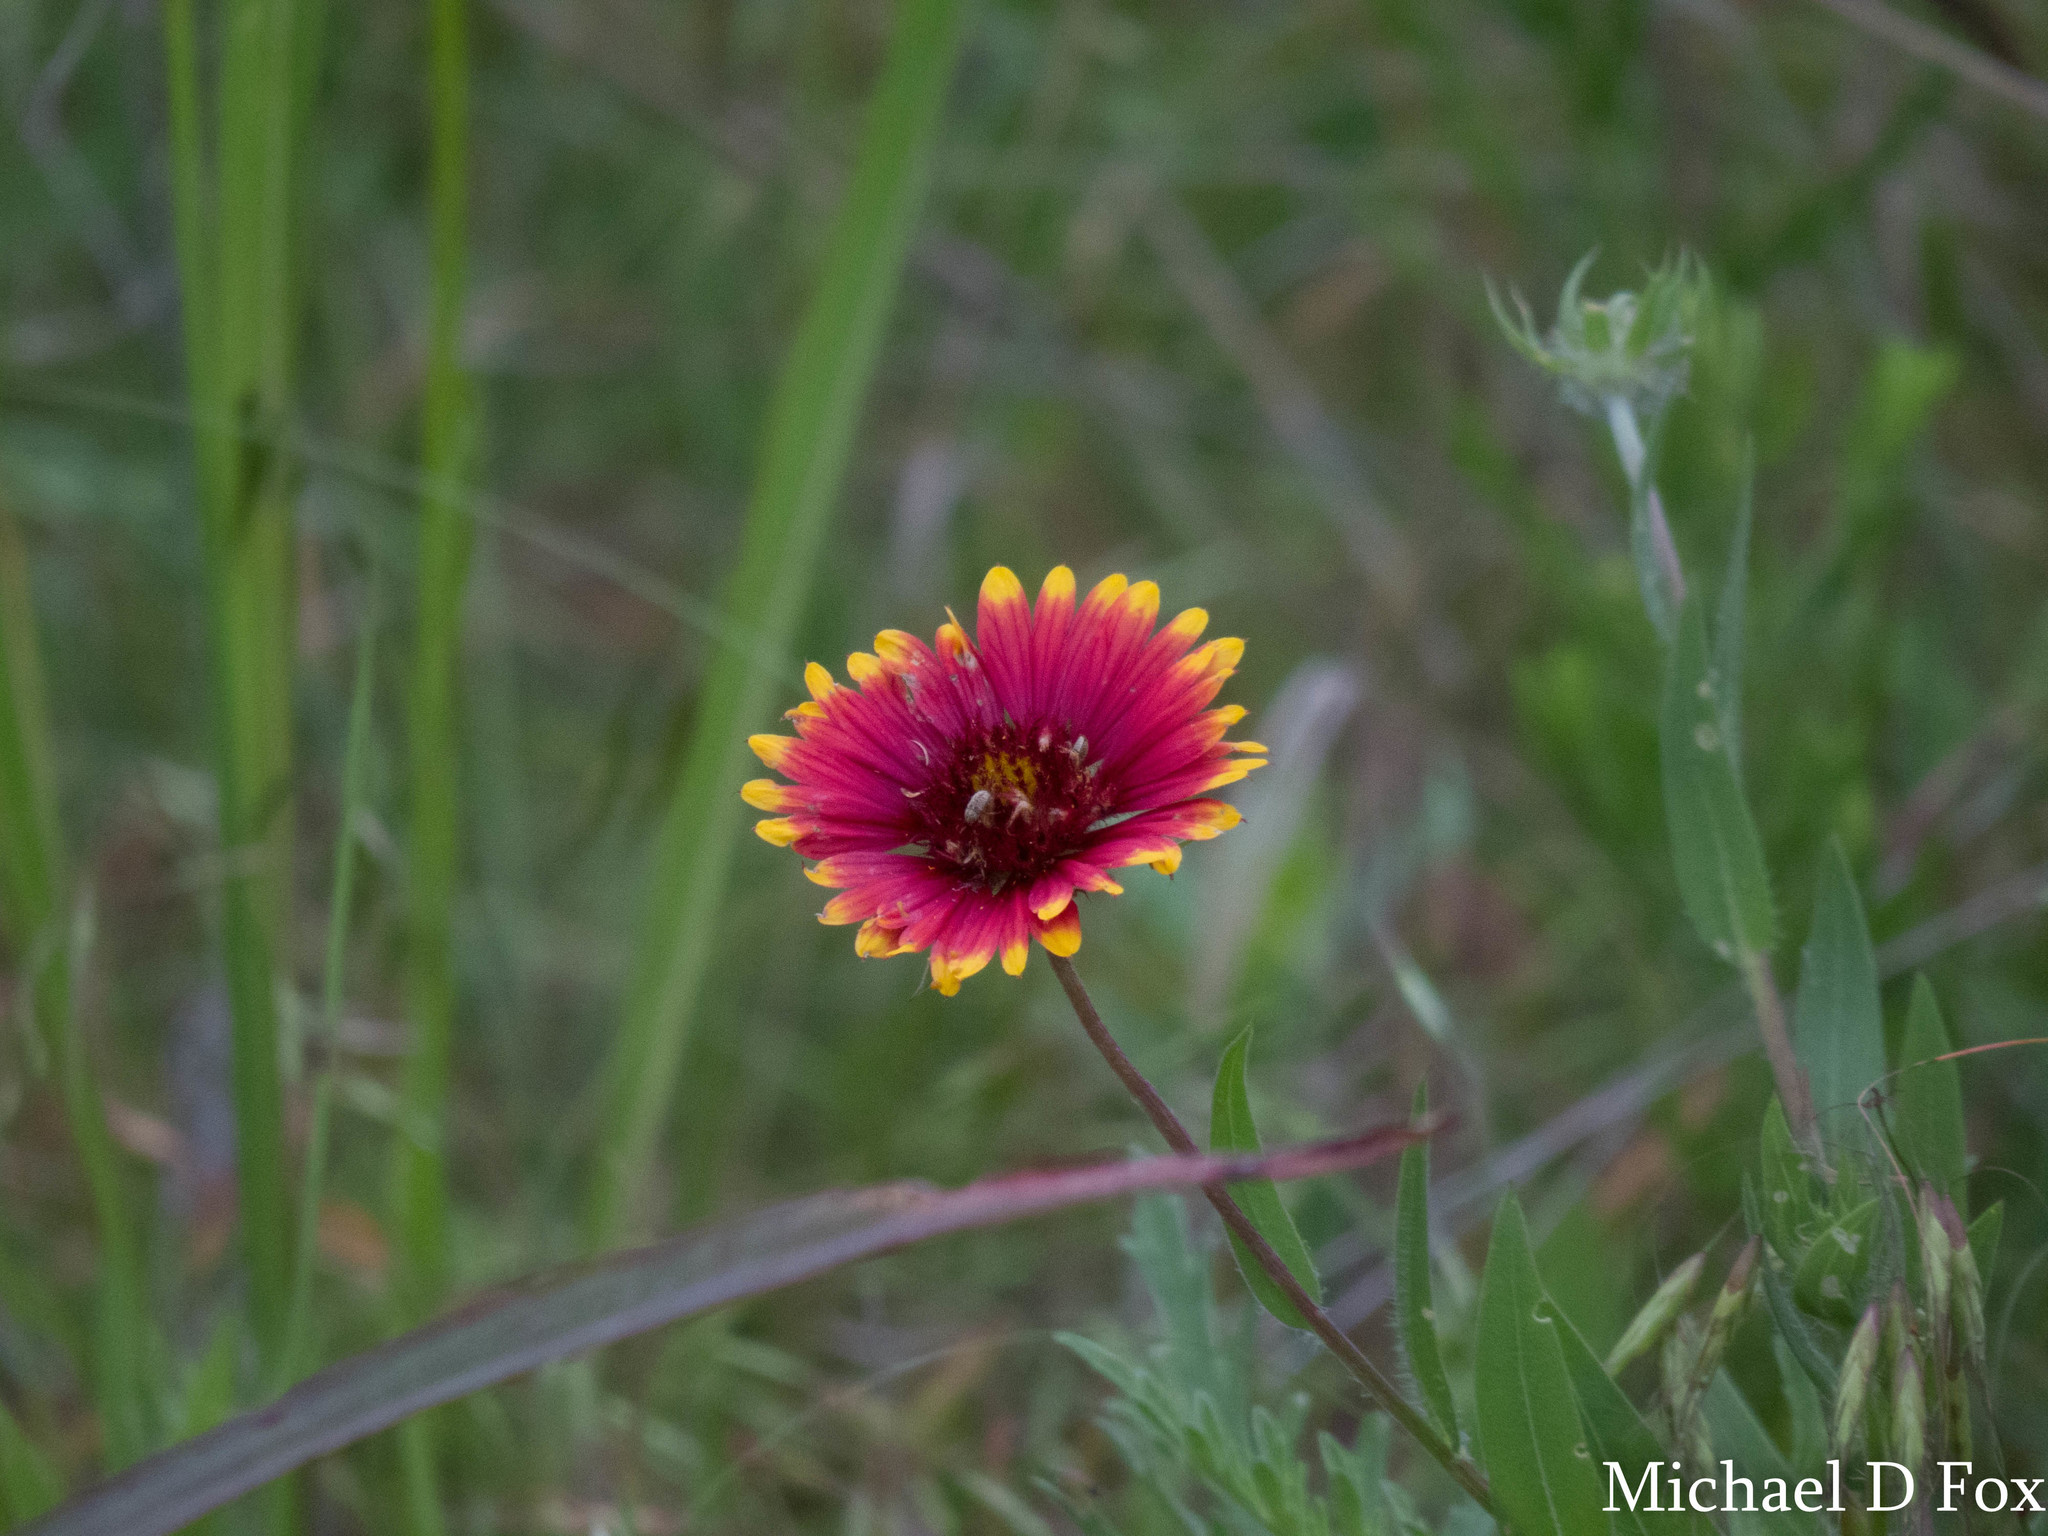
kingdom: Plantae
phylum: Tracheophyta
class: Magnoliopsida
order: Asterales
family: Asteraceae
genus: Gaillardia
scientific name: Gaillardia pulchella
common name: Firewheel
